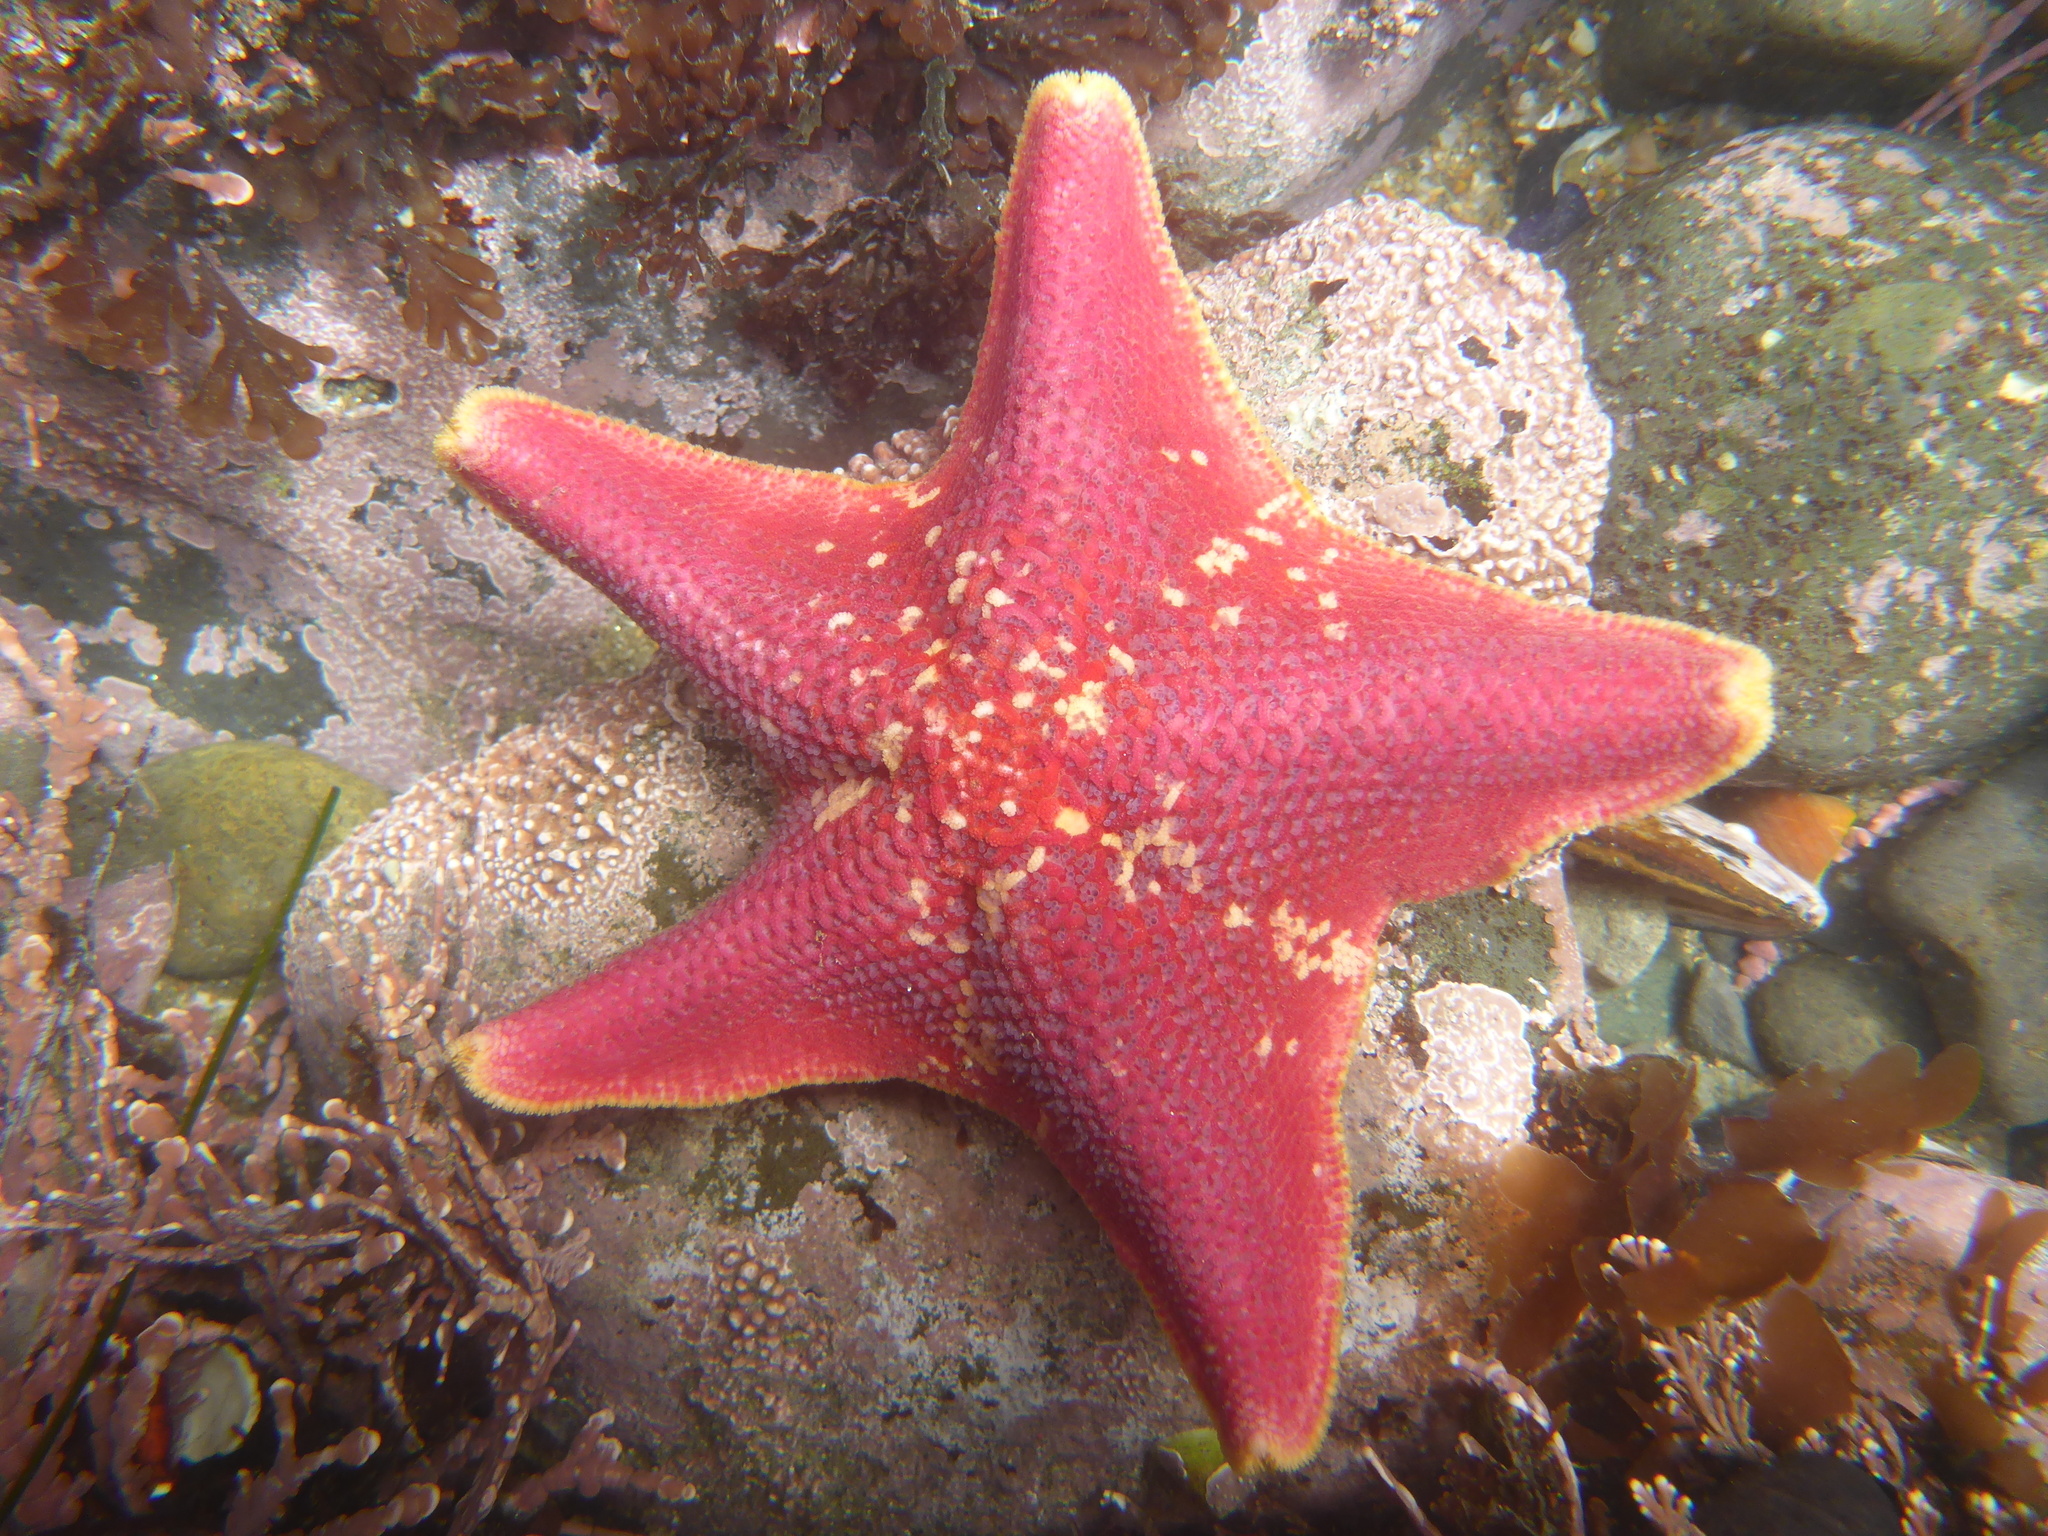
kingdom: Animalia
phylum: Echinodermata
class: Asteroidea
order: Valvatida
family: Asterinidae
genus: Patiria
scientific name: Patiria miniata
